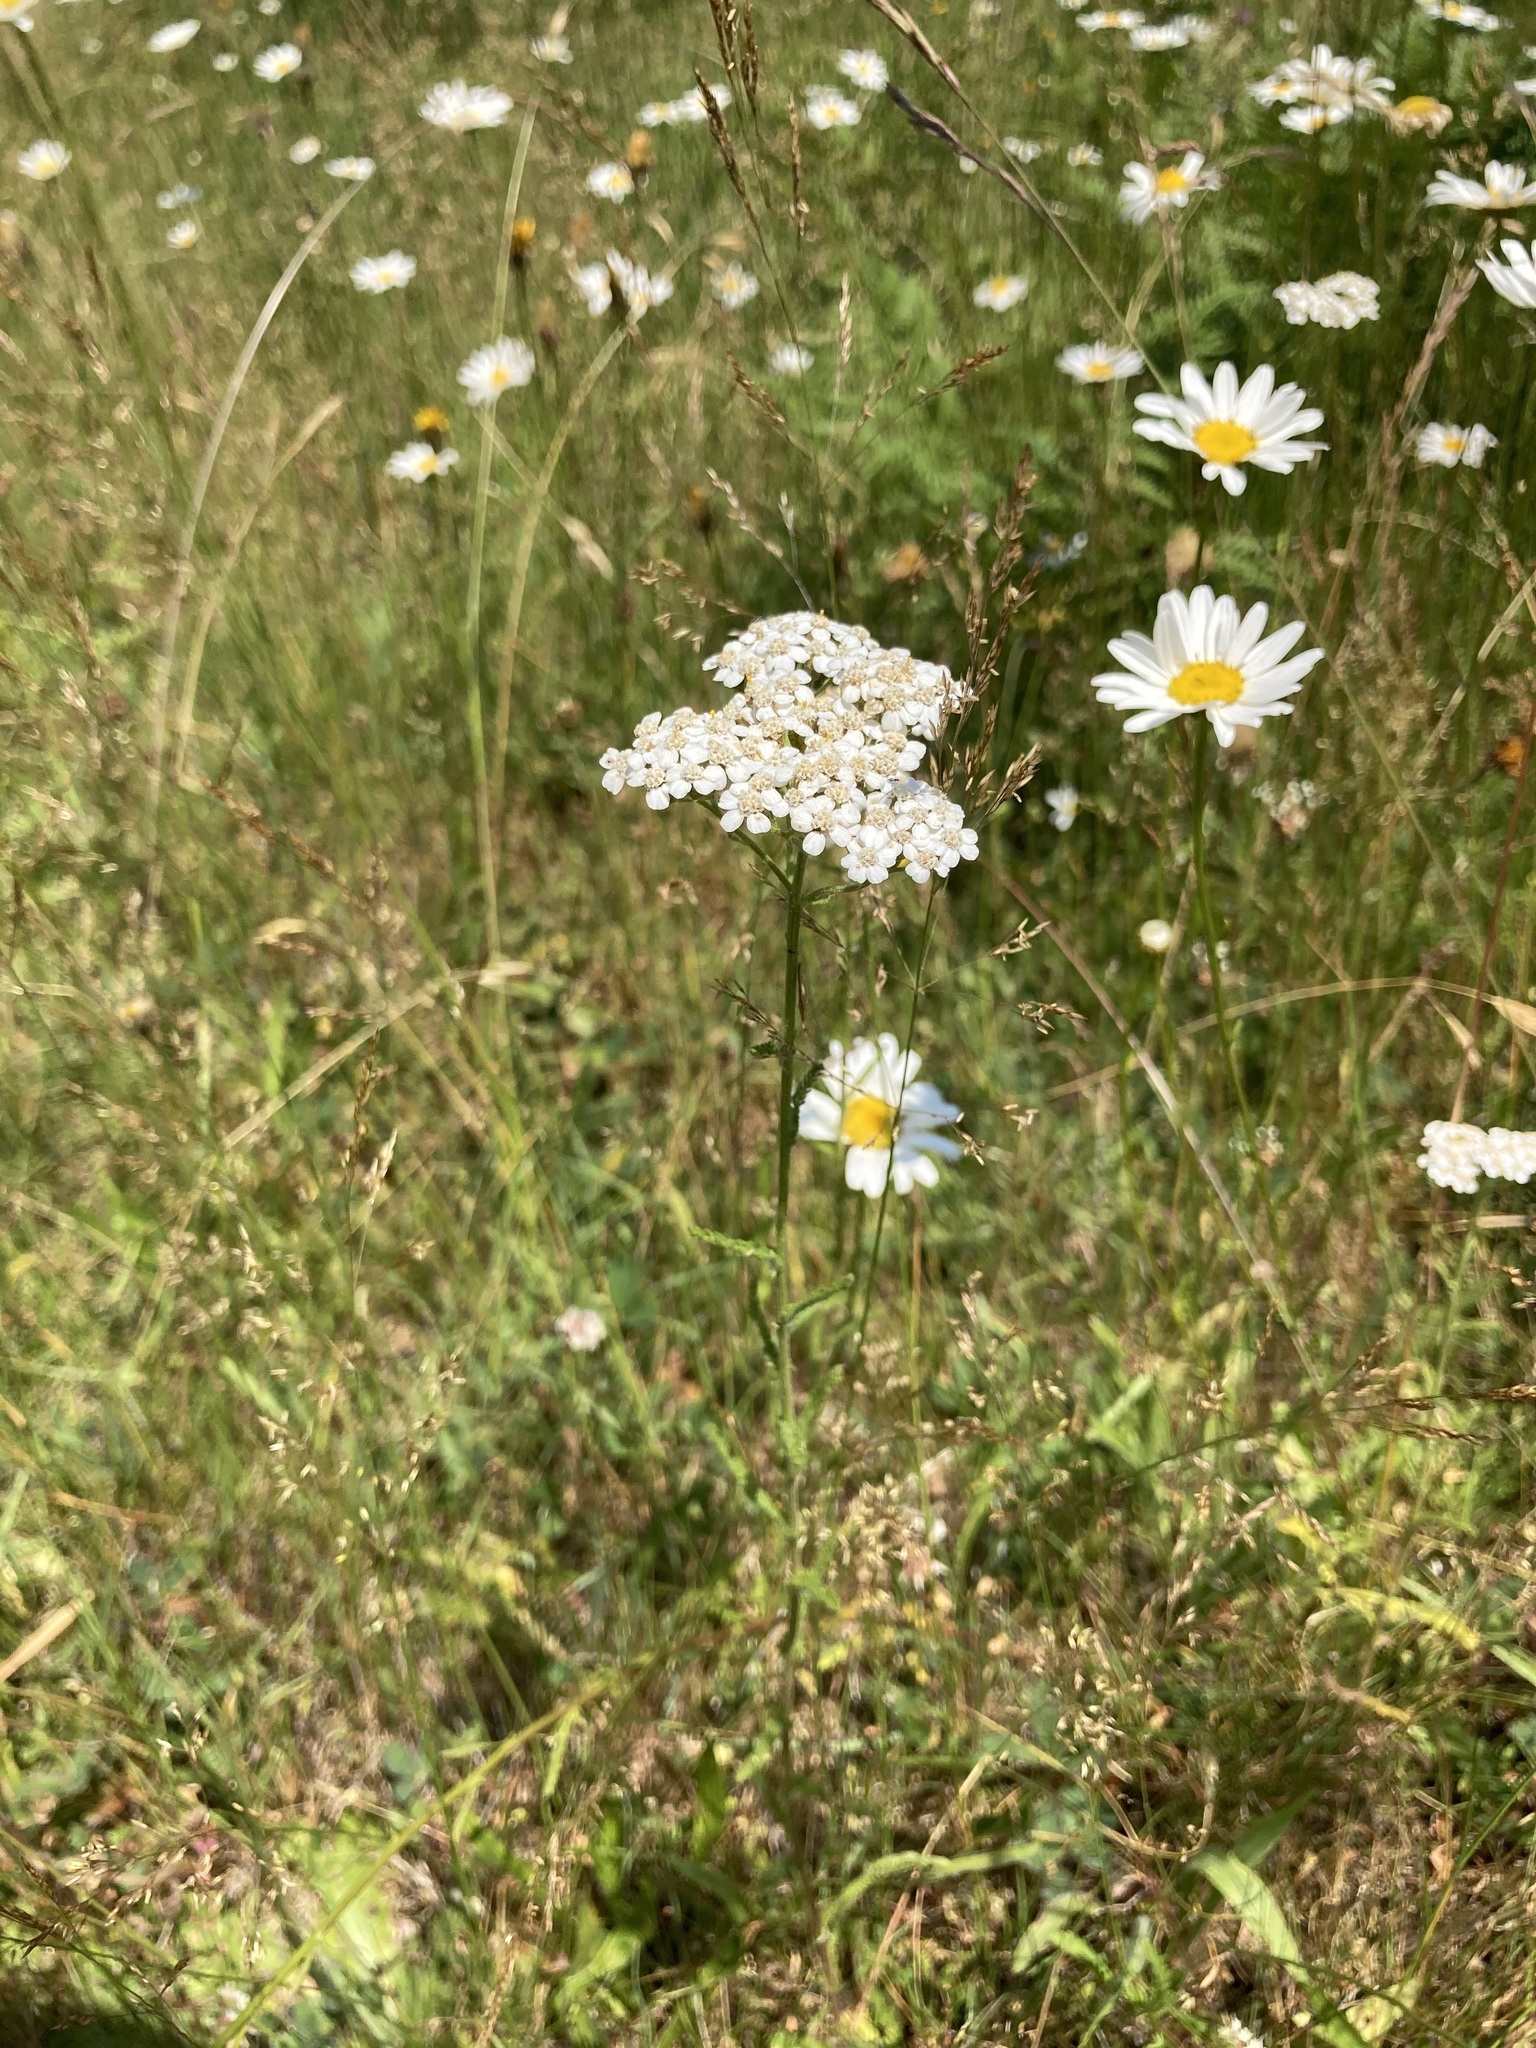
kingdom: Plantae
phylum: Tracheophyta
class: Magnoliopsida
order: Asterales
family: Asteraceae
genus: Achillea
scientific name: Achillea millefolium
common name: Yarrow
